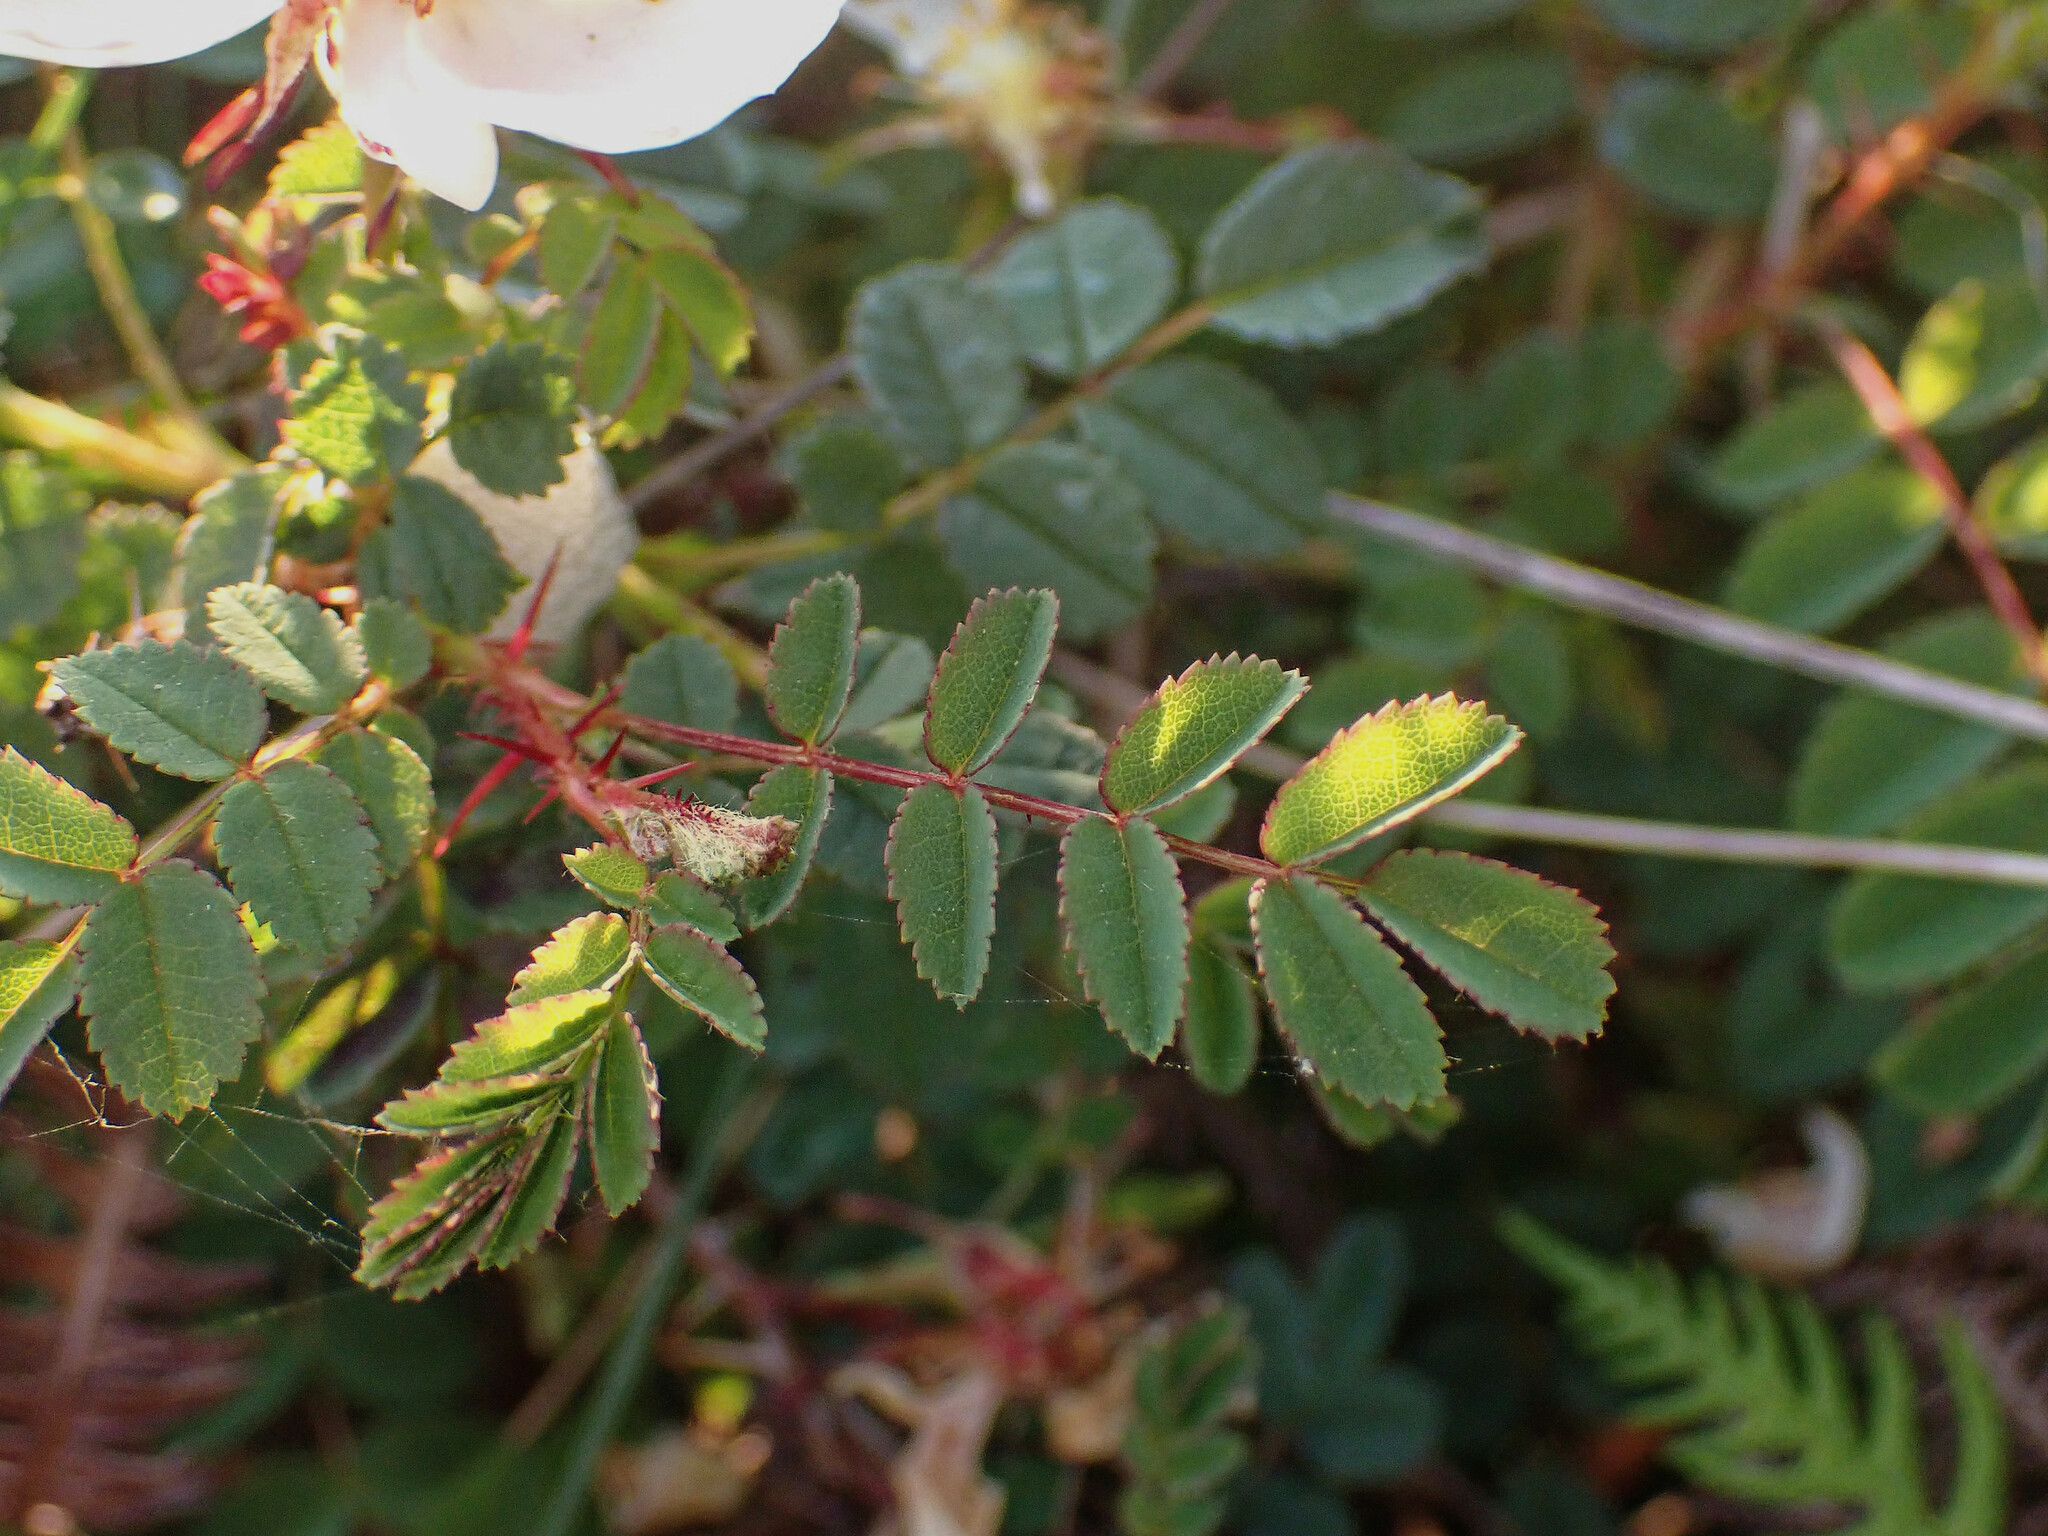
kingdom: Plantae
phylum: Tracheophyta
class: Magnoliopsida
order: Rosales
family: Rosaceae
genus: Rosa
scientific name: Rosa spinosissima
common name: Burnet rose
